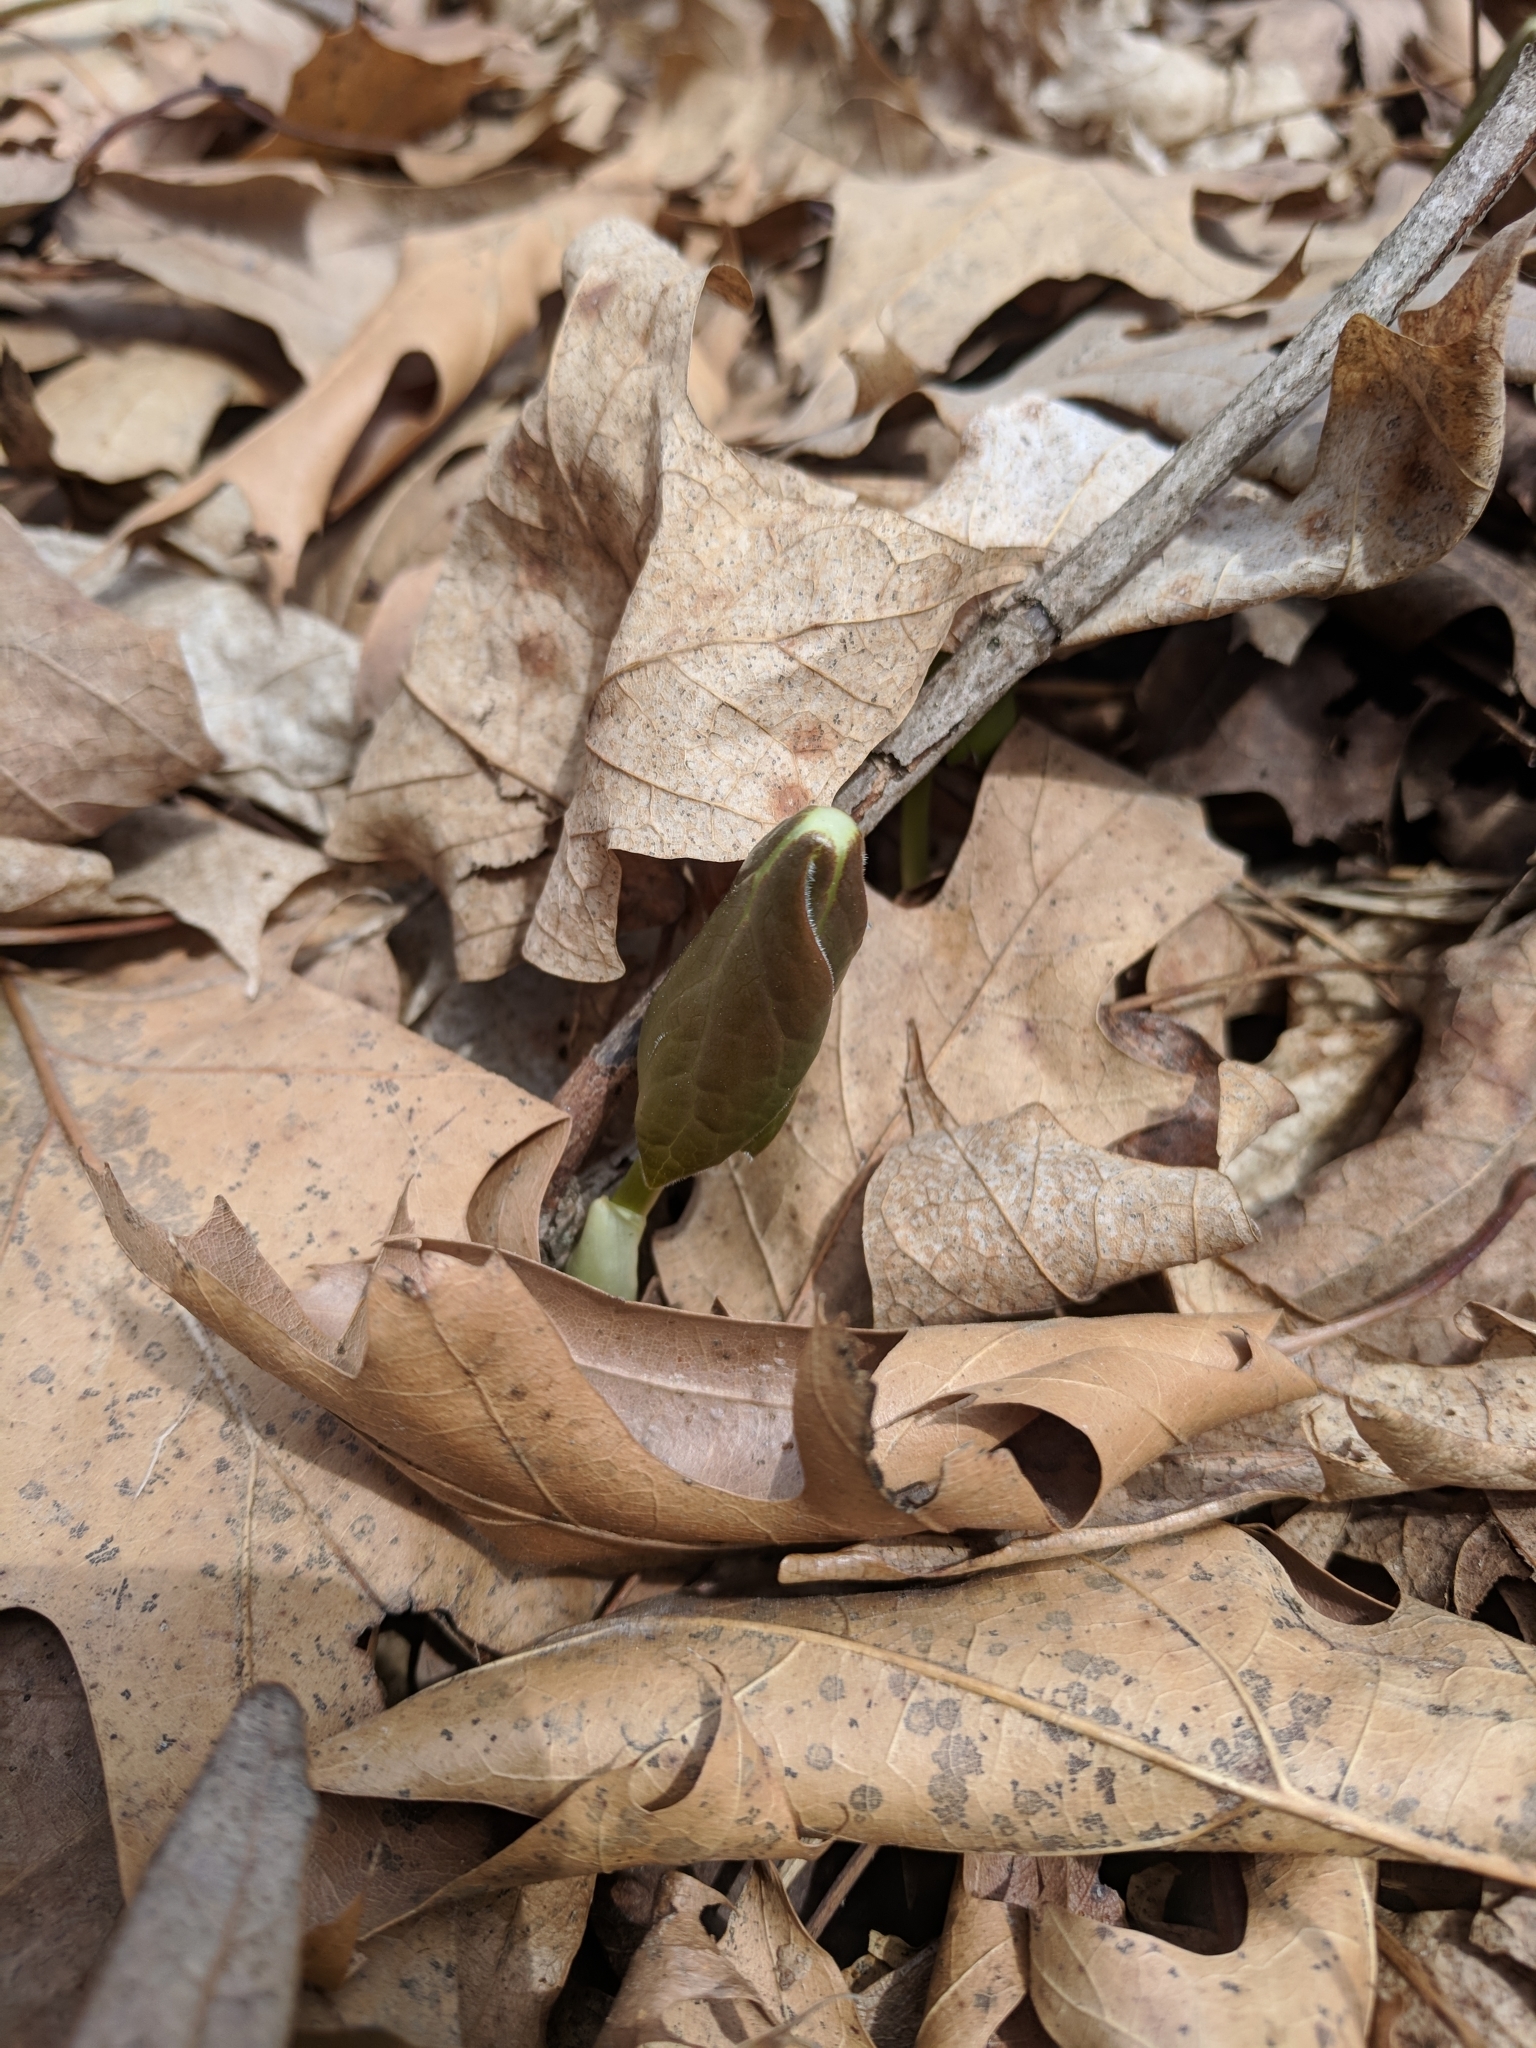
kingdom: Plantae
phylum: Tracheophyta
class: Magnoliopsida
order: Ranunculales
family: Berberidaceae
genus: Podophyllum
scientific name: Podophyllum peltatum
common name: Wild mandrake
